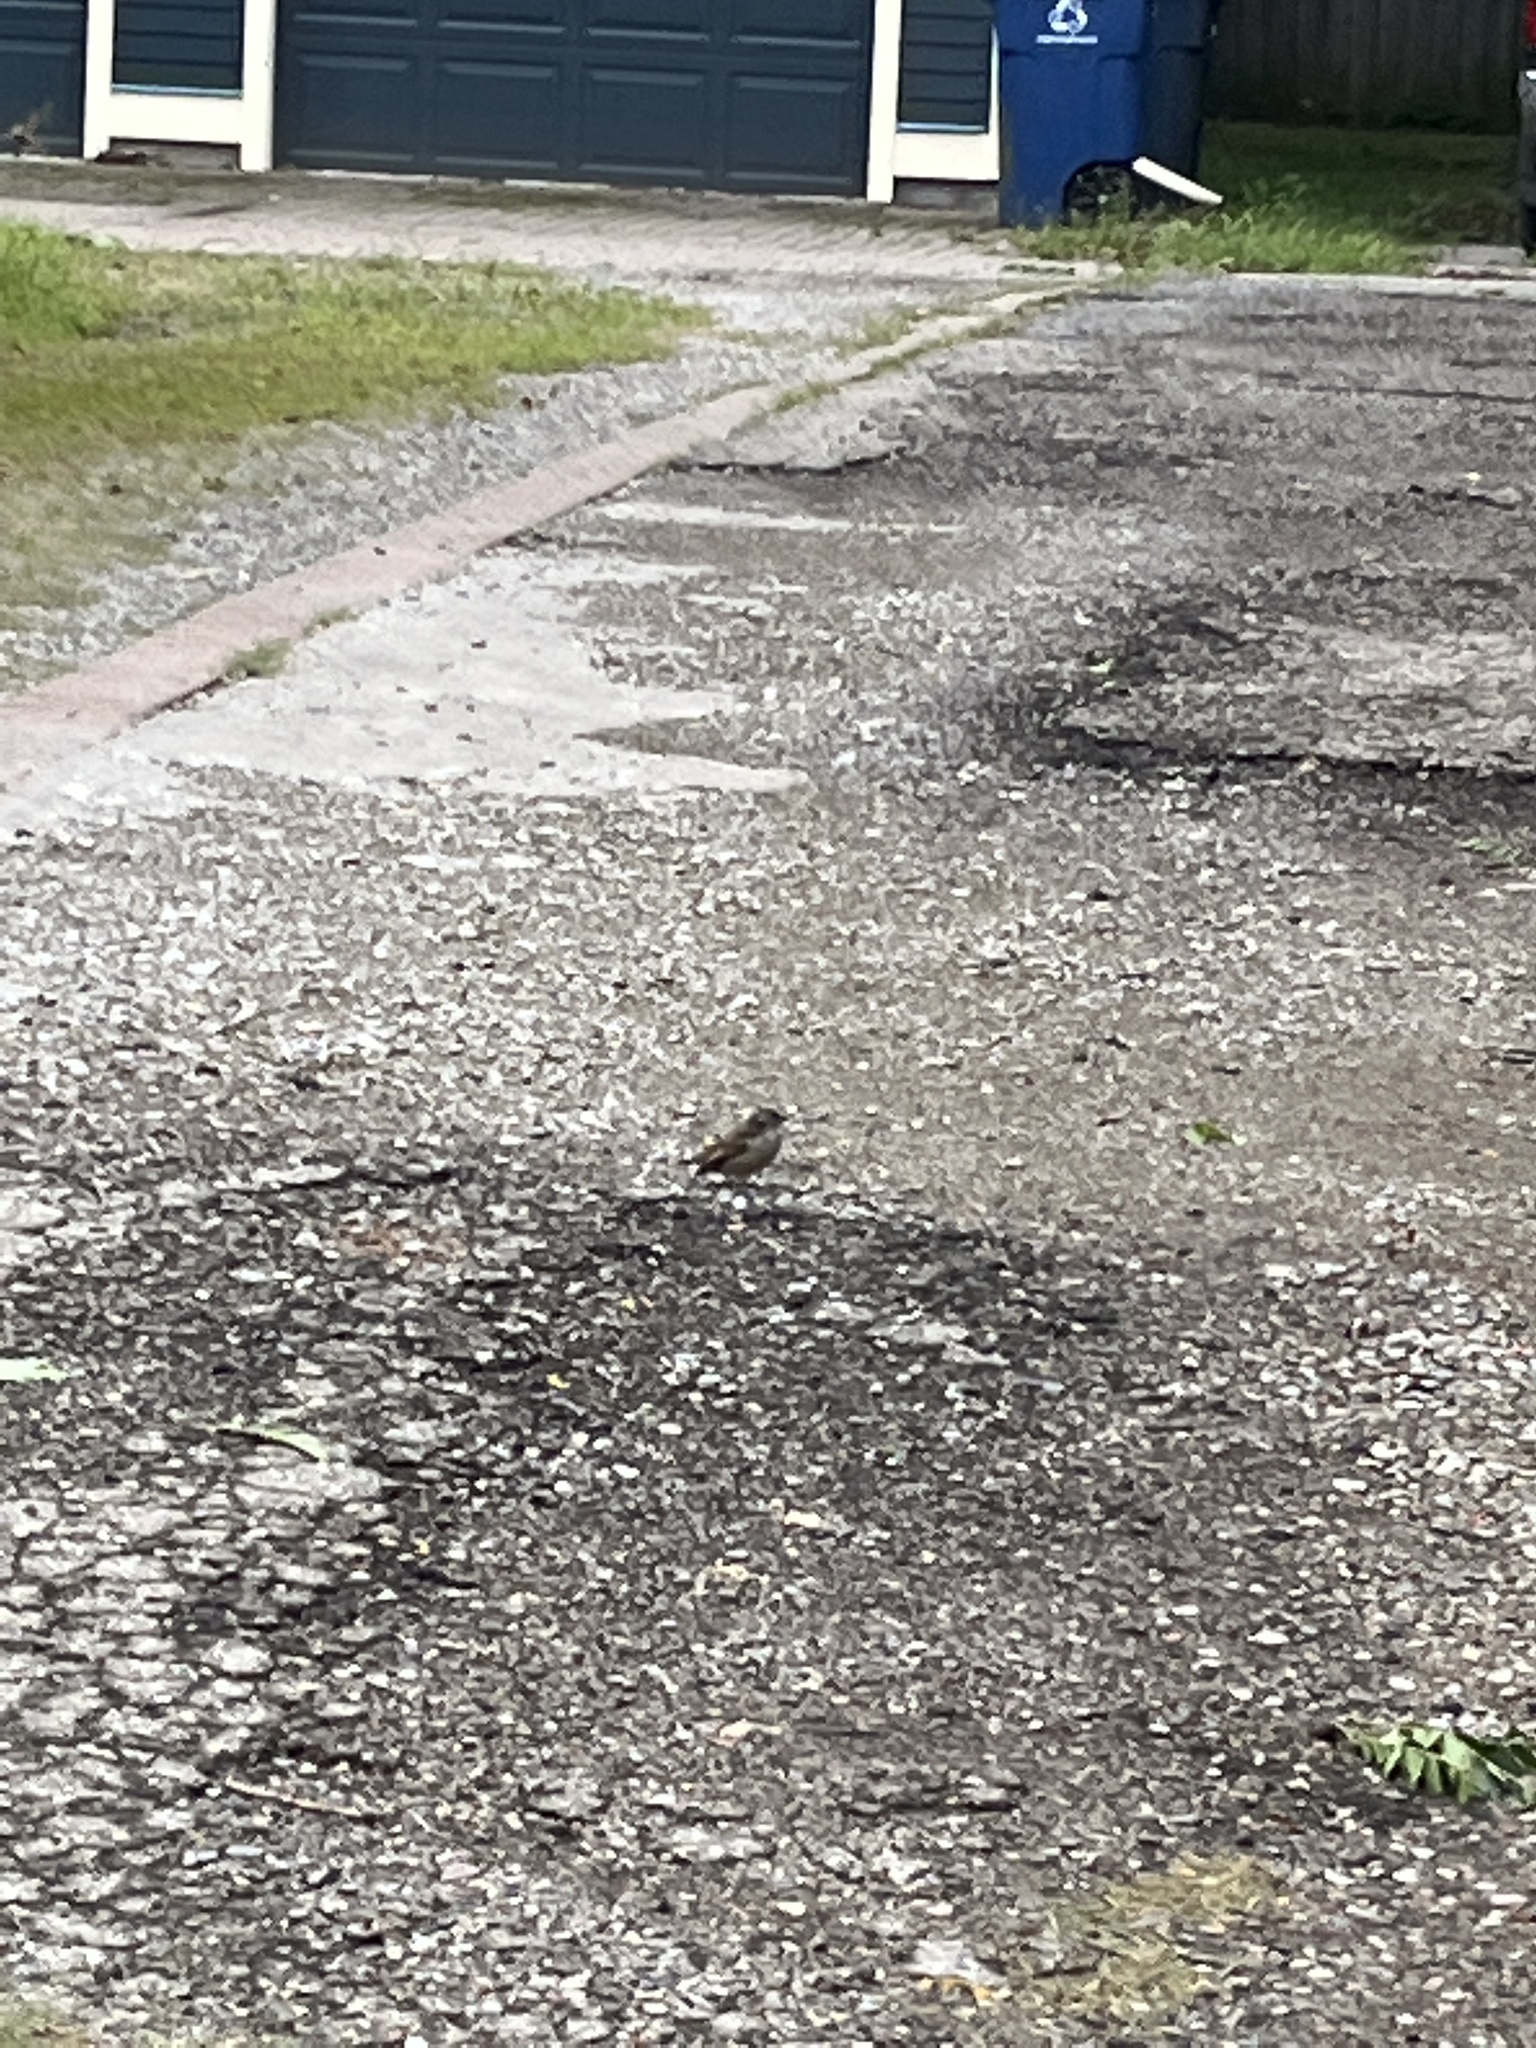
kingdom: Animalia
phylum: Chordata
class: Aves
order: Passeriformes
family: Passeridae
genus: Passer
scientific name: Passer domesticus
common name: House sparrow
